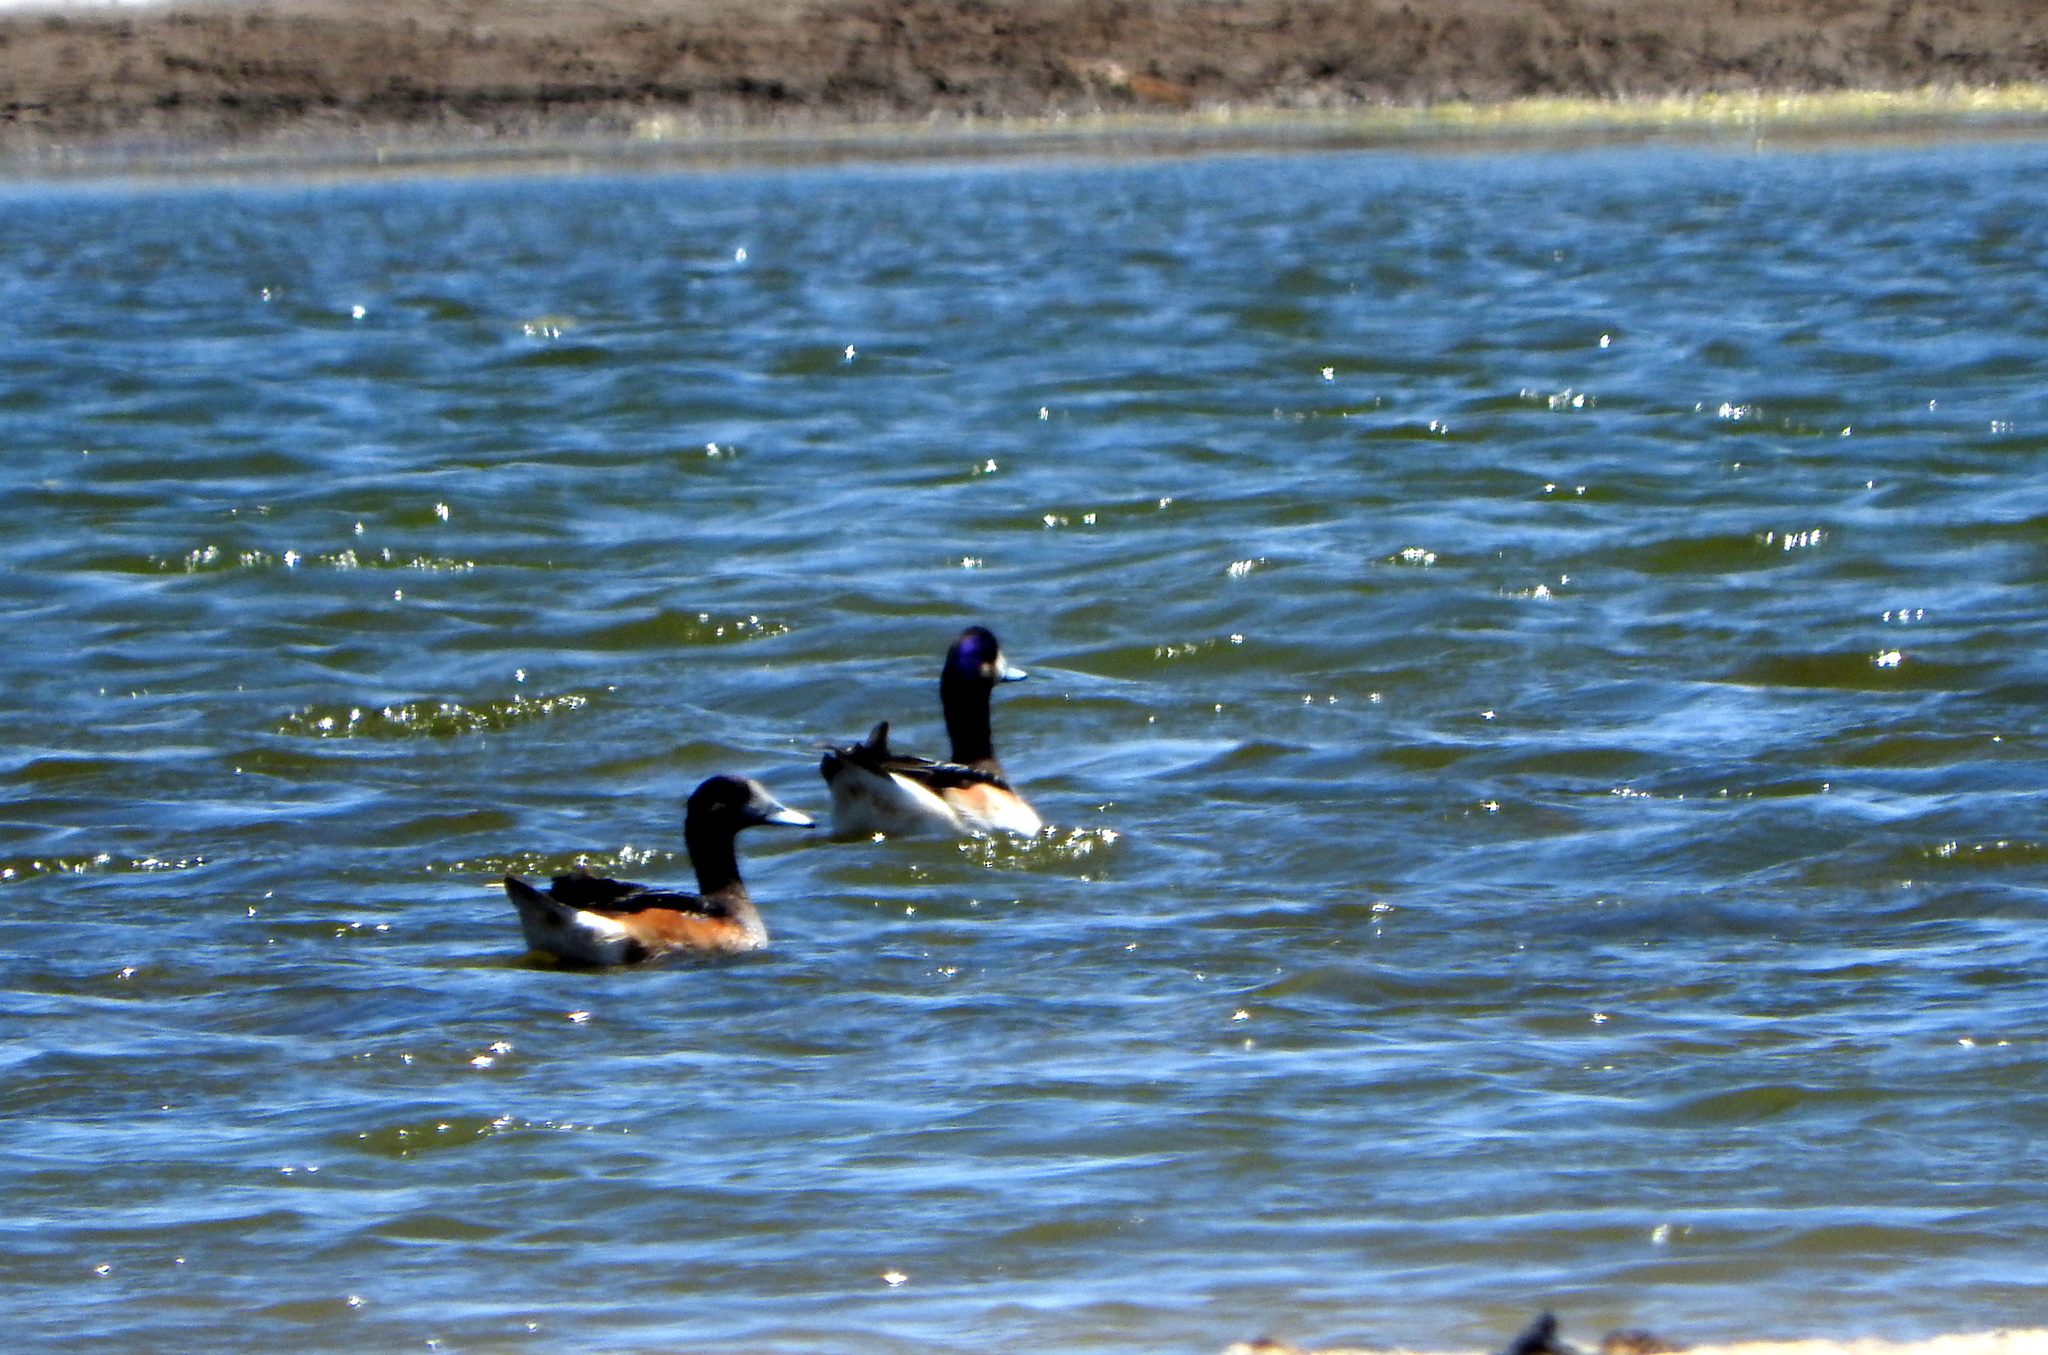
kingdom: Animalia
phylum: Chordata
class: Aves
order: Anseriformes
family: Anatidae
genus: Mareca
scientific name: Mareca sibilatrix
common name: Chiloe wigeon
